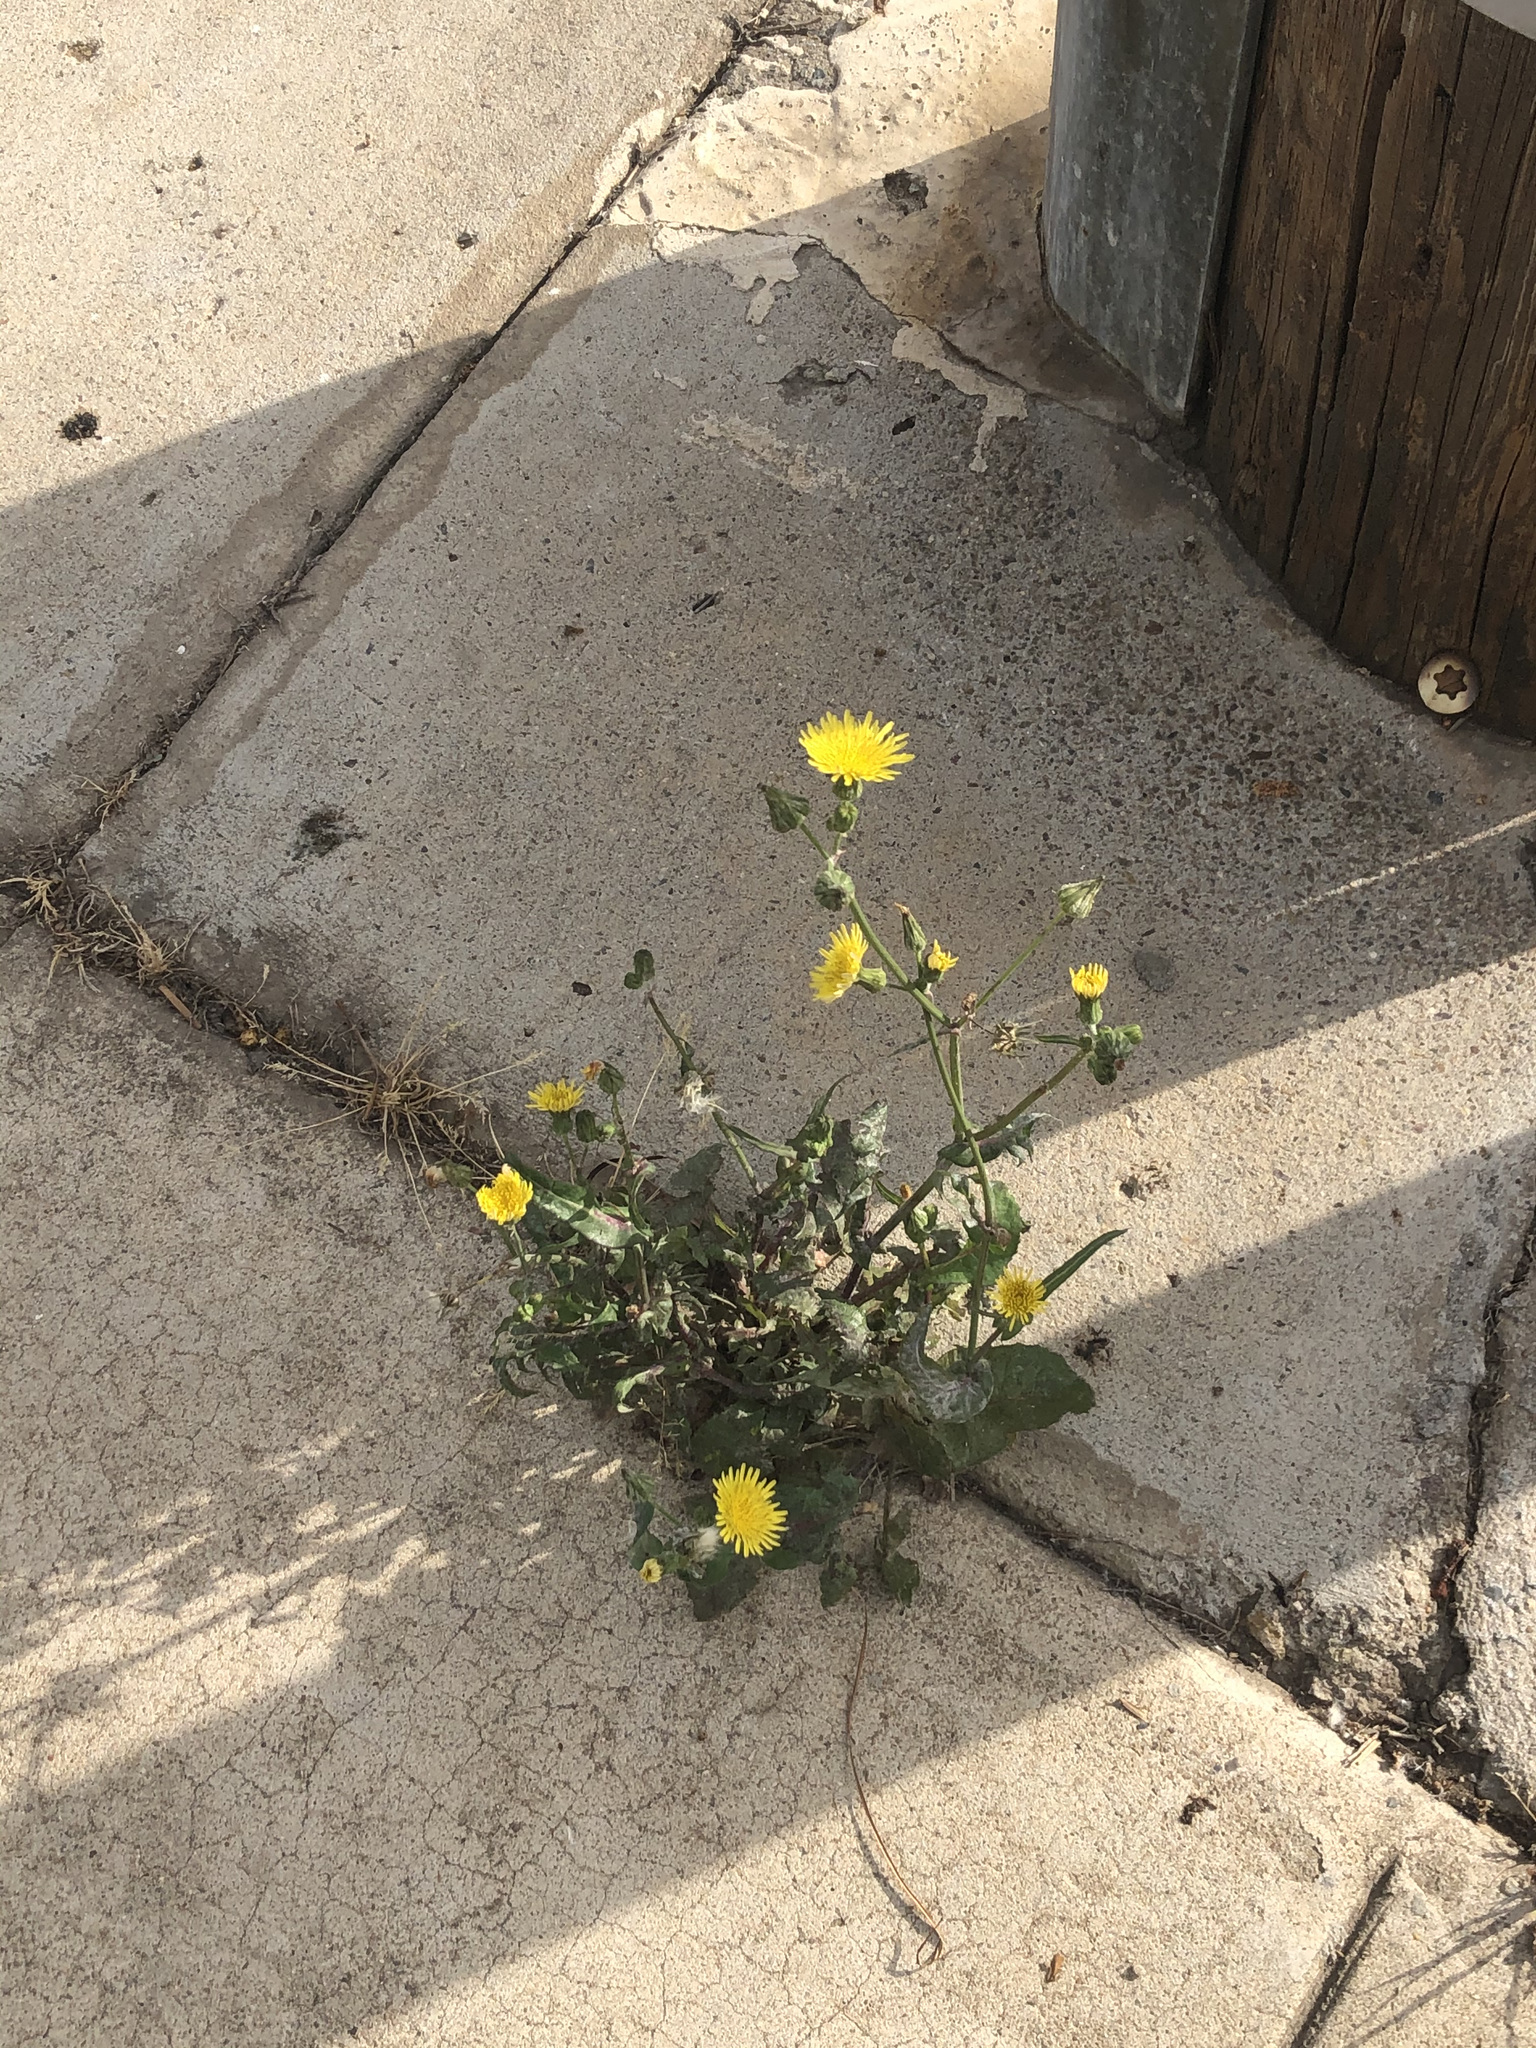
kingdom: Plantae
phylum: Tracheophyta
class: Magnoliopsida
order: Asterales
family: Asteraceae
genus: Sonchus
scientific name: Sonchus oleraceus
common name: Common sowthistle
